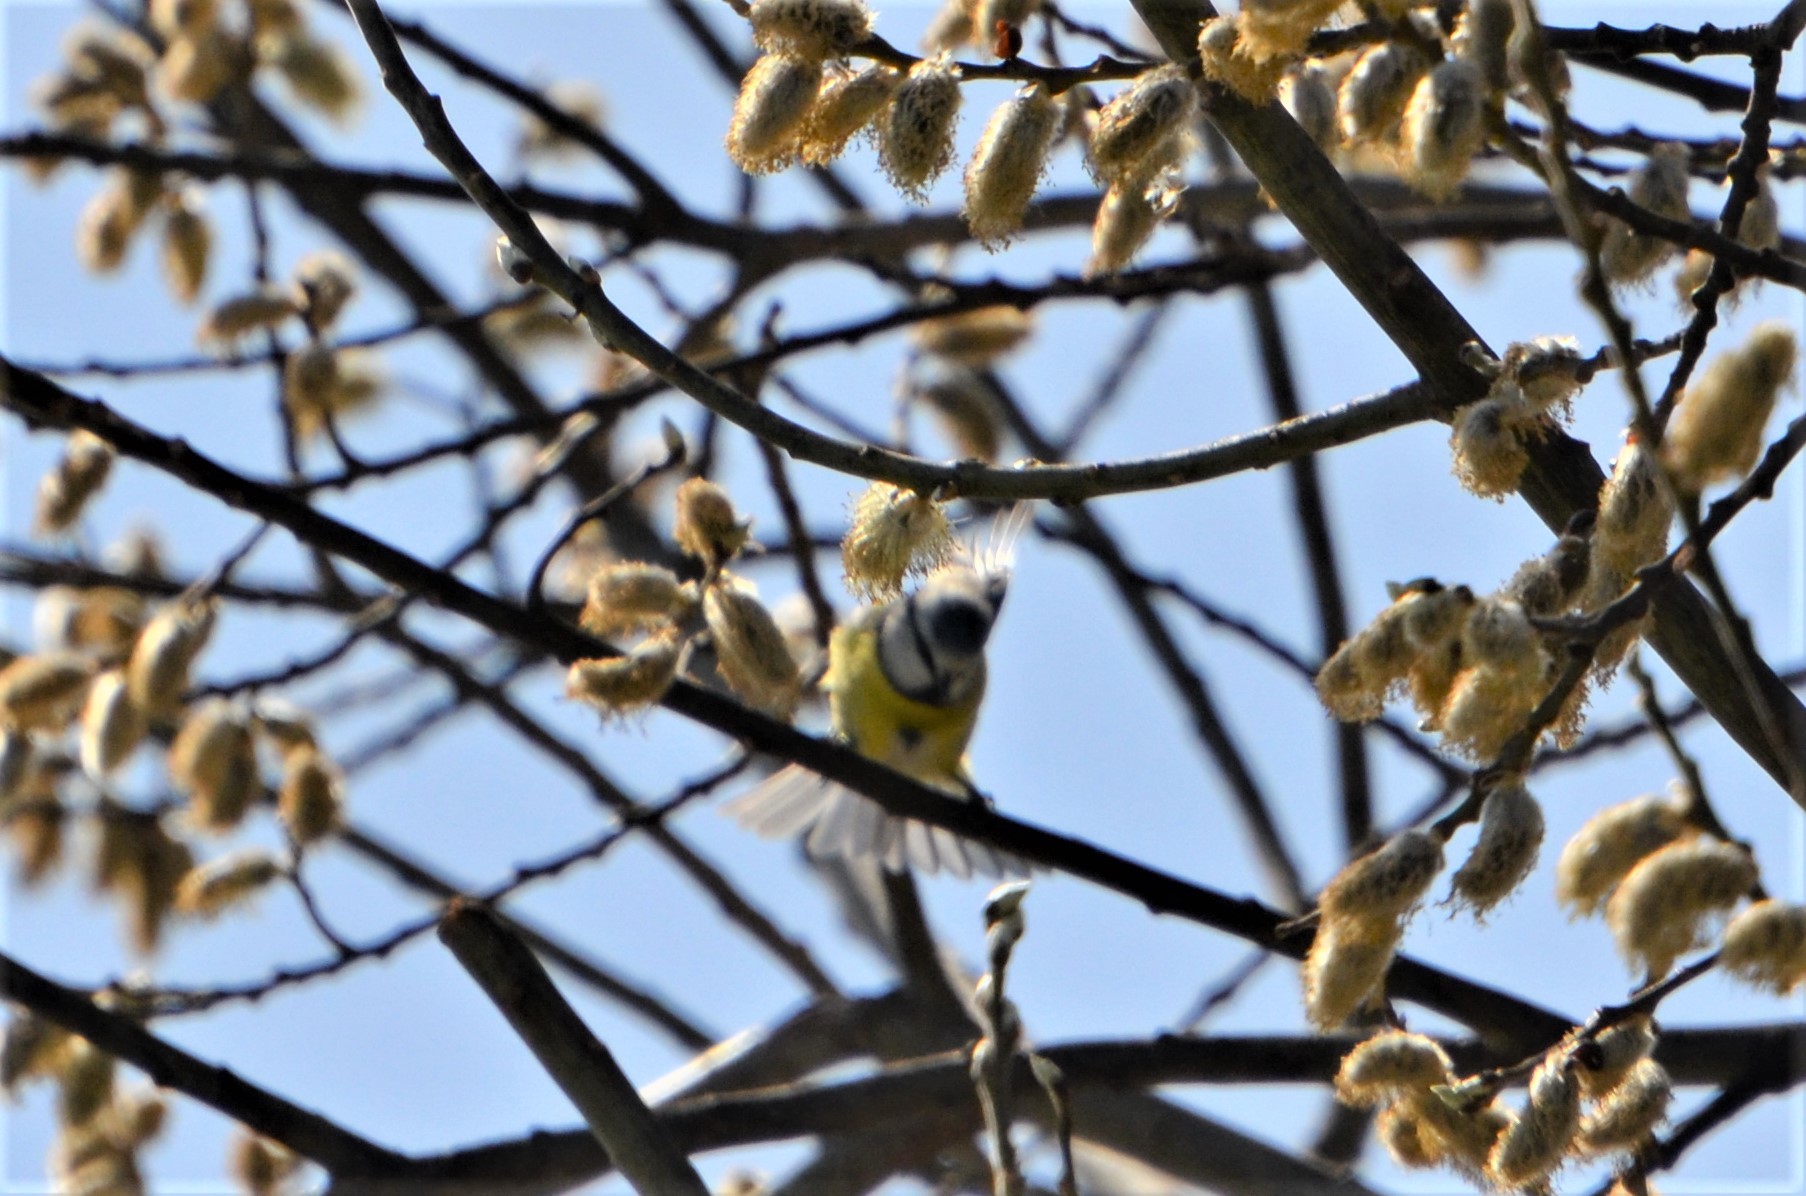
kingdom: Animalia
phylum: Chordata
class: Aves
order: Passeriformes
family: Paridae
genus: Cyanistes
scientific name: Cyanistes caeruleus
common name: Eurasian blue tit
